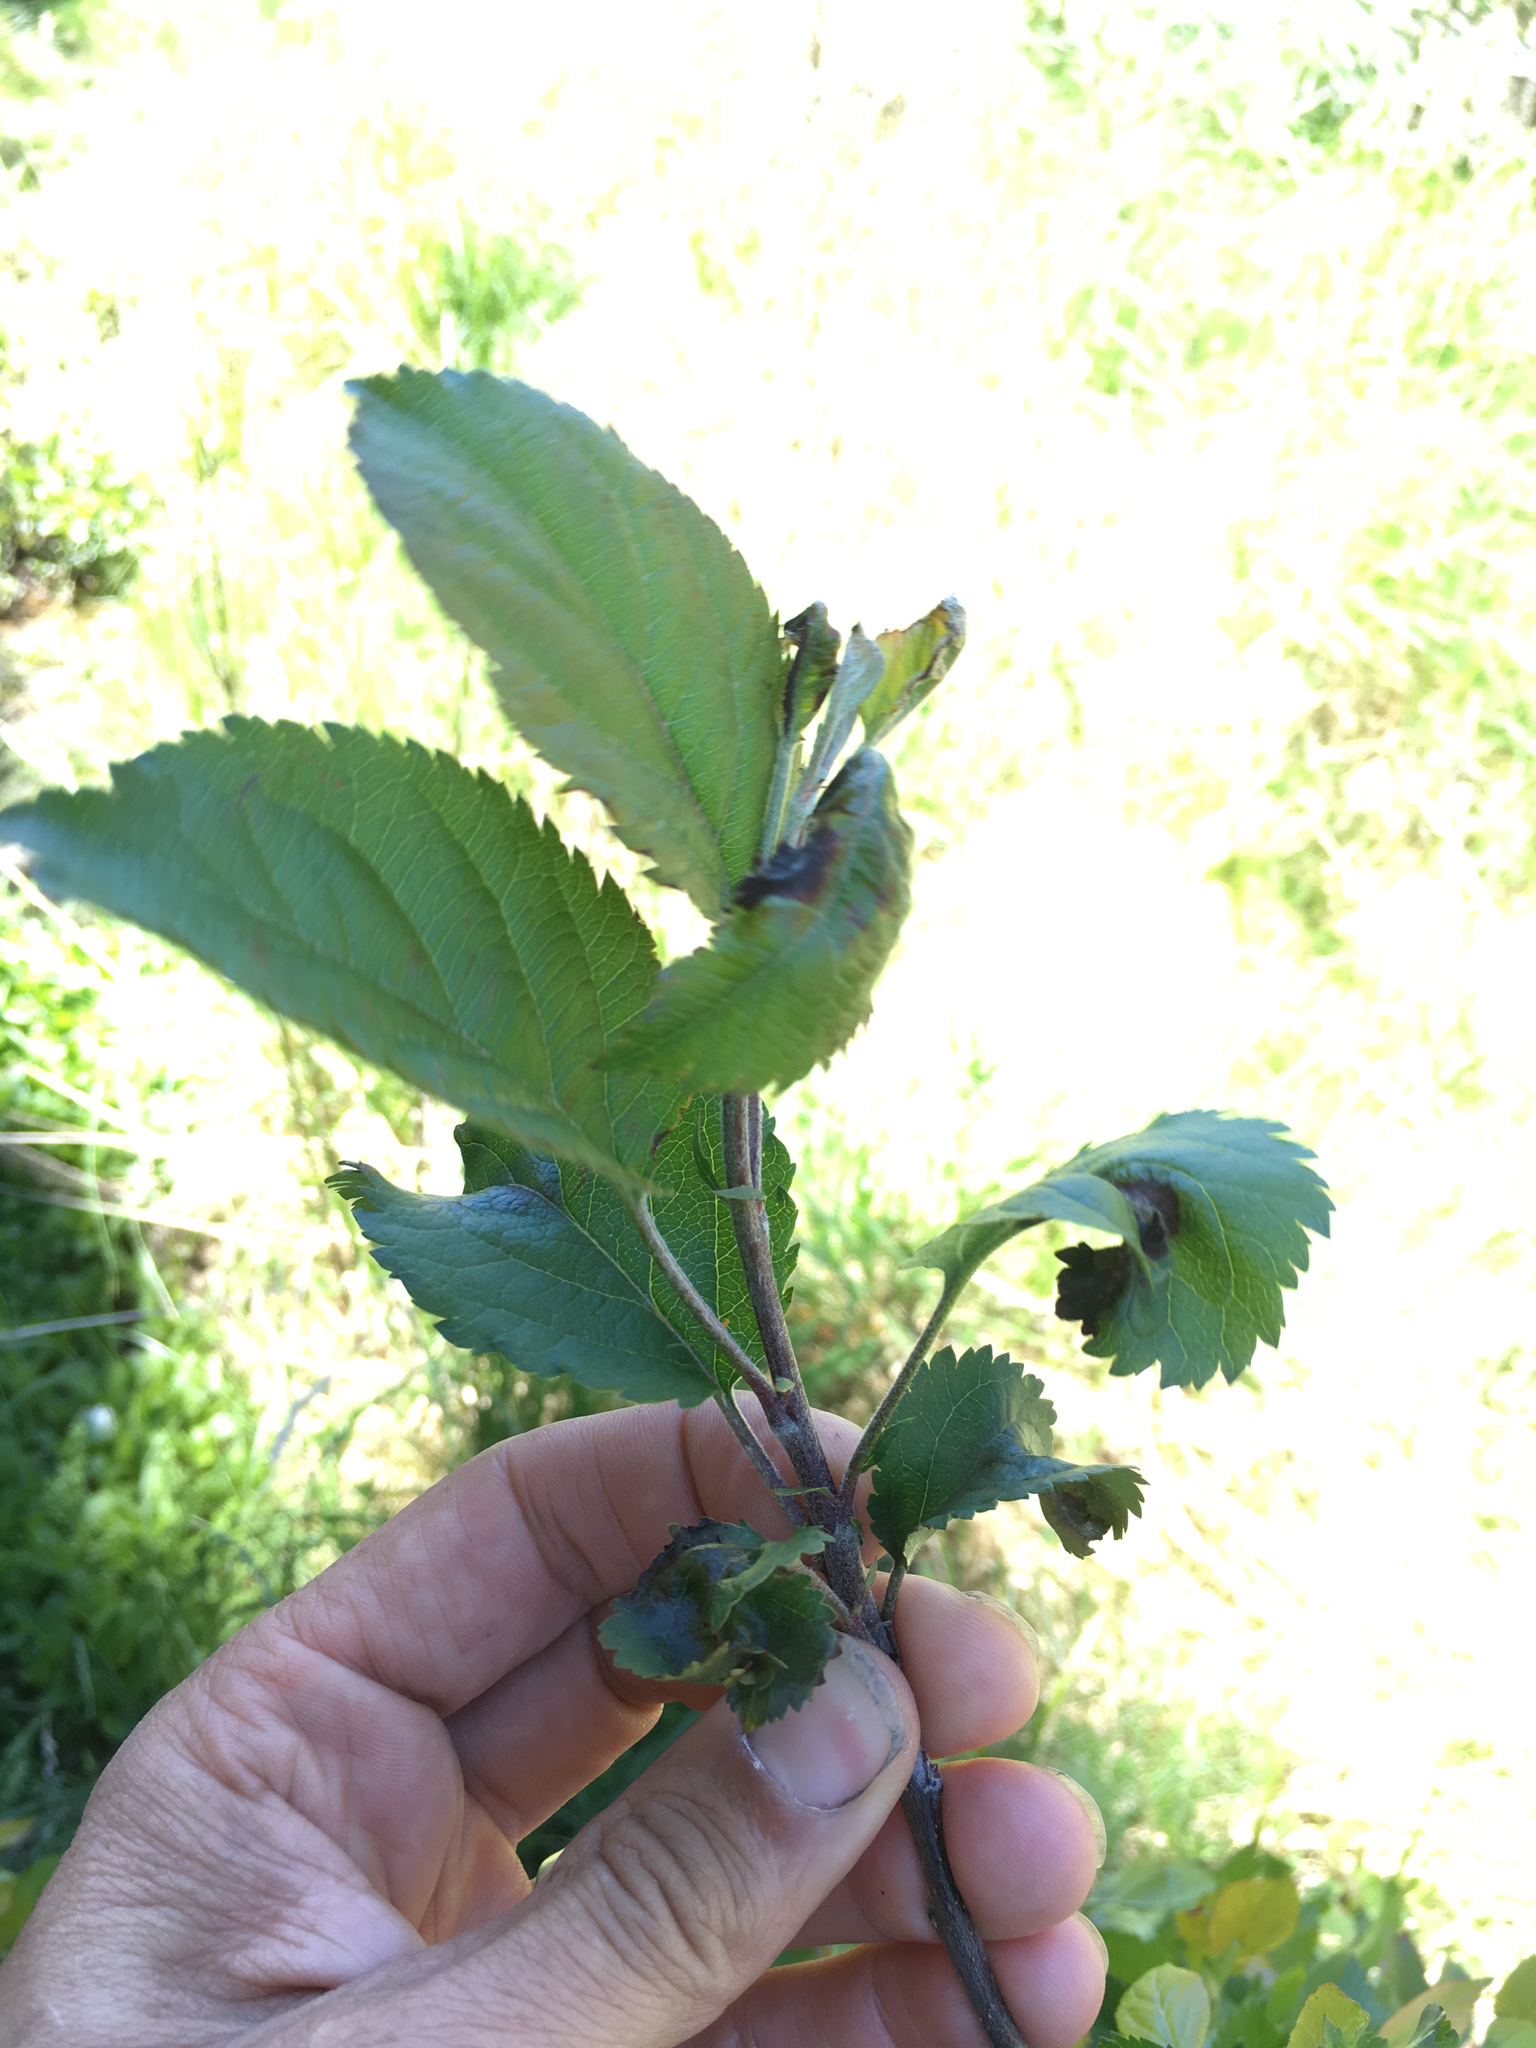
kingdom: Plantae
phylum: Tracheophyta
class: Magnoliopsida
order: Rosales
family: Rosaceae
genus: Malus
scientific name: Malus domestica
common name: Apple
